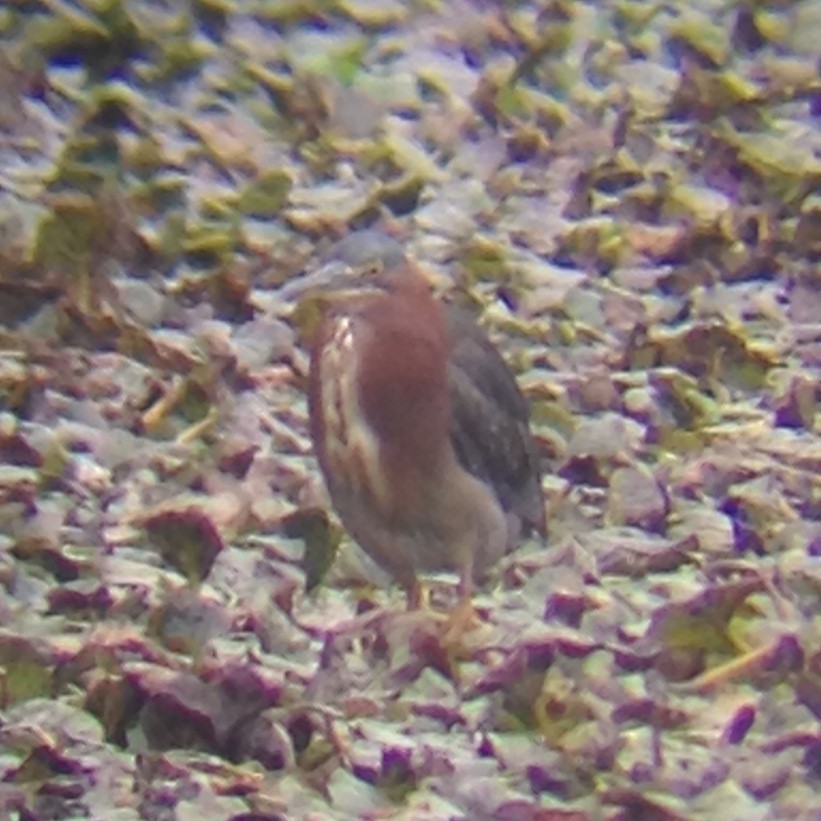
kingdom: Animalia
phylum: Chordata
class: Aves
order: Pelecaniformes
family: Ardeidae
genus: Butorides
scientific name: Butorides virescens
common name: Green heron
